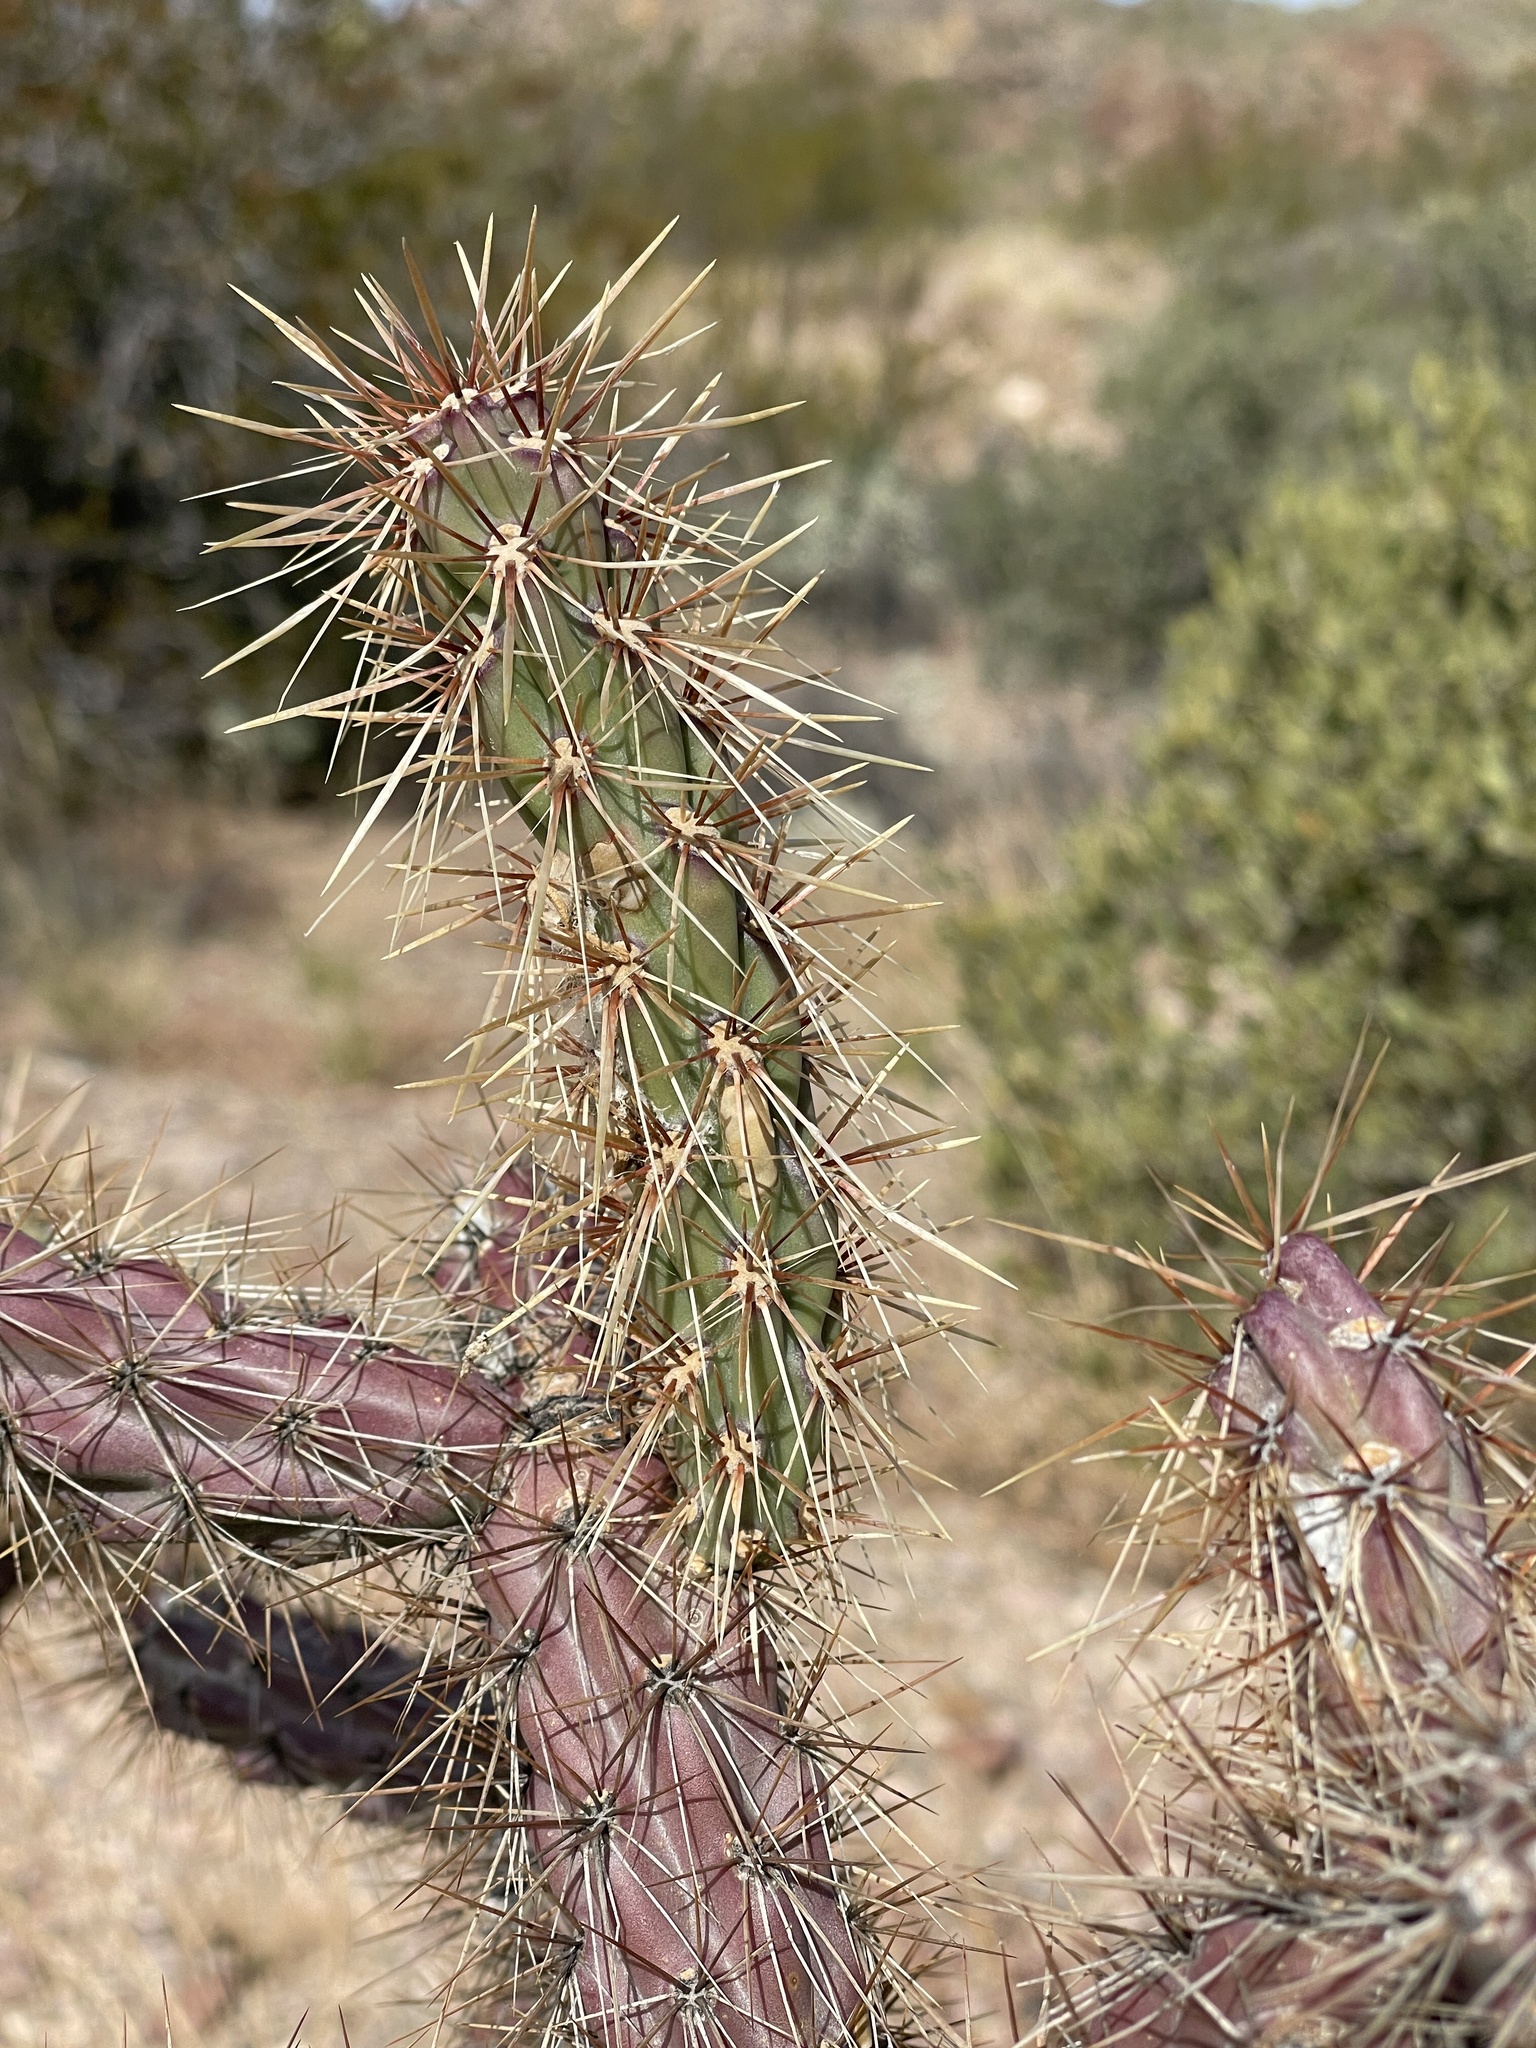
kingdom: Plantae
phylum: Tracheophyta
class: Magnoliopsida
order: Caryophyllales
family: Cactaceae
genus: Cylindropuntia
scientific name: Cylindropuntia acanthocarpa
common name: Buckhorn cholla
